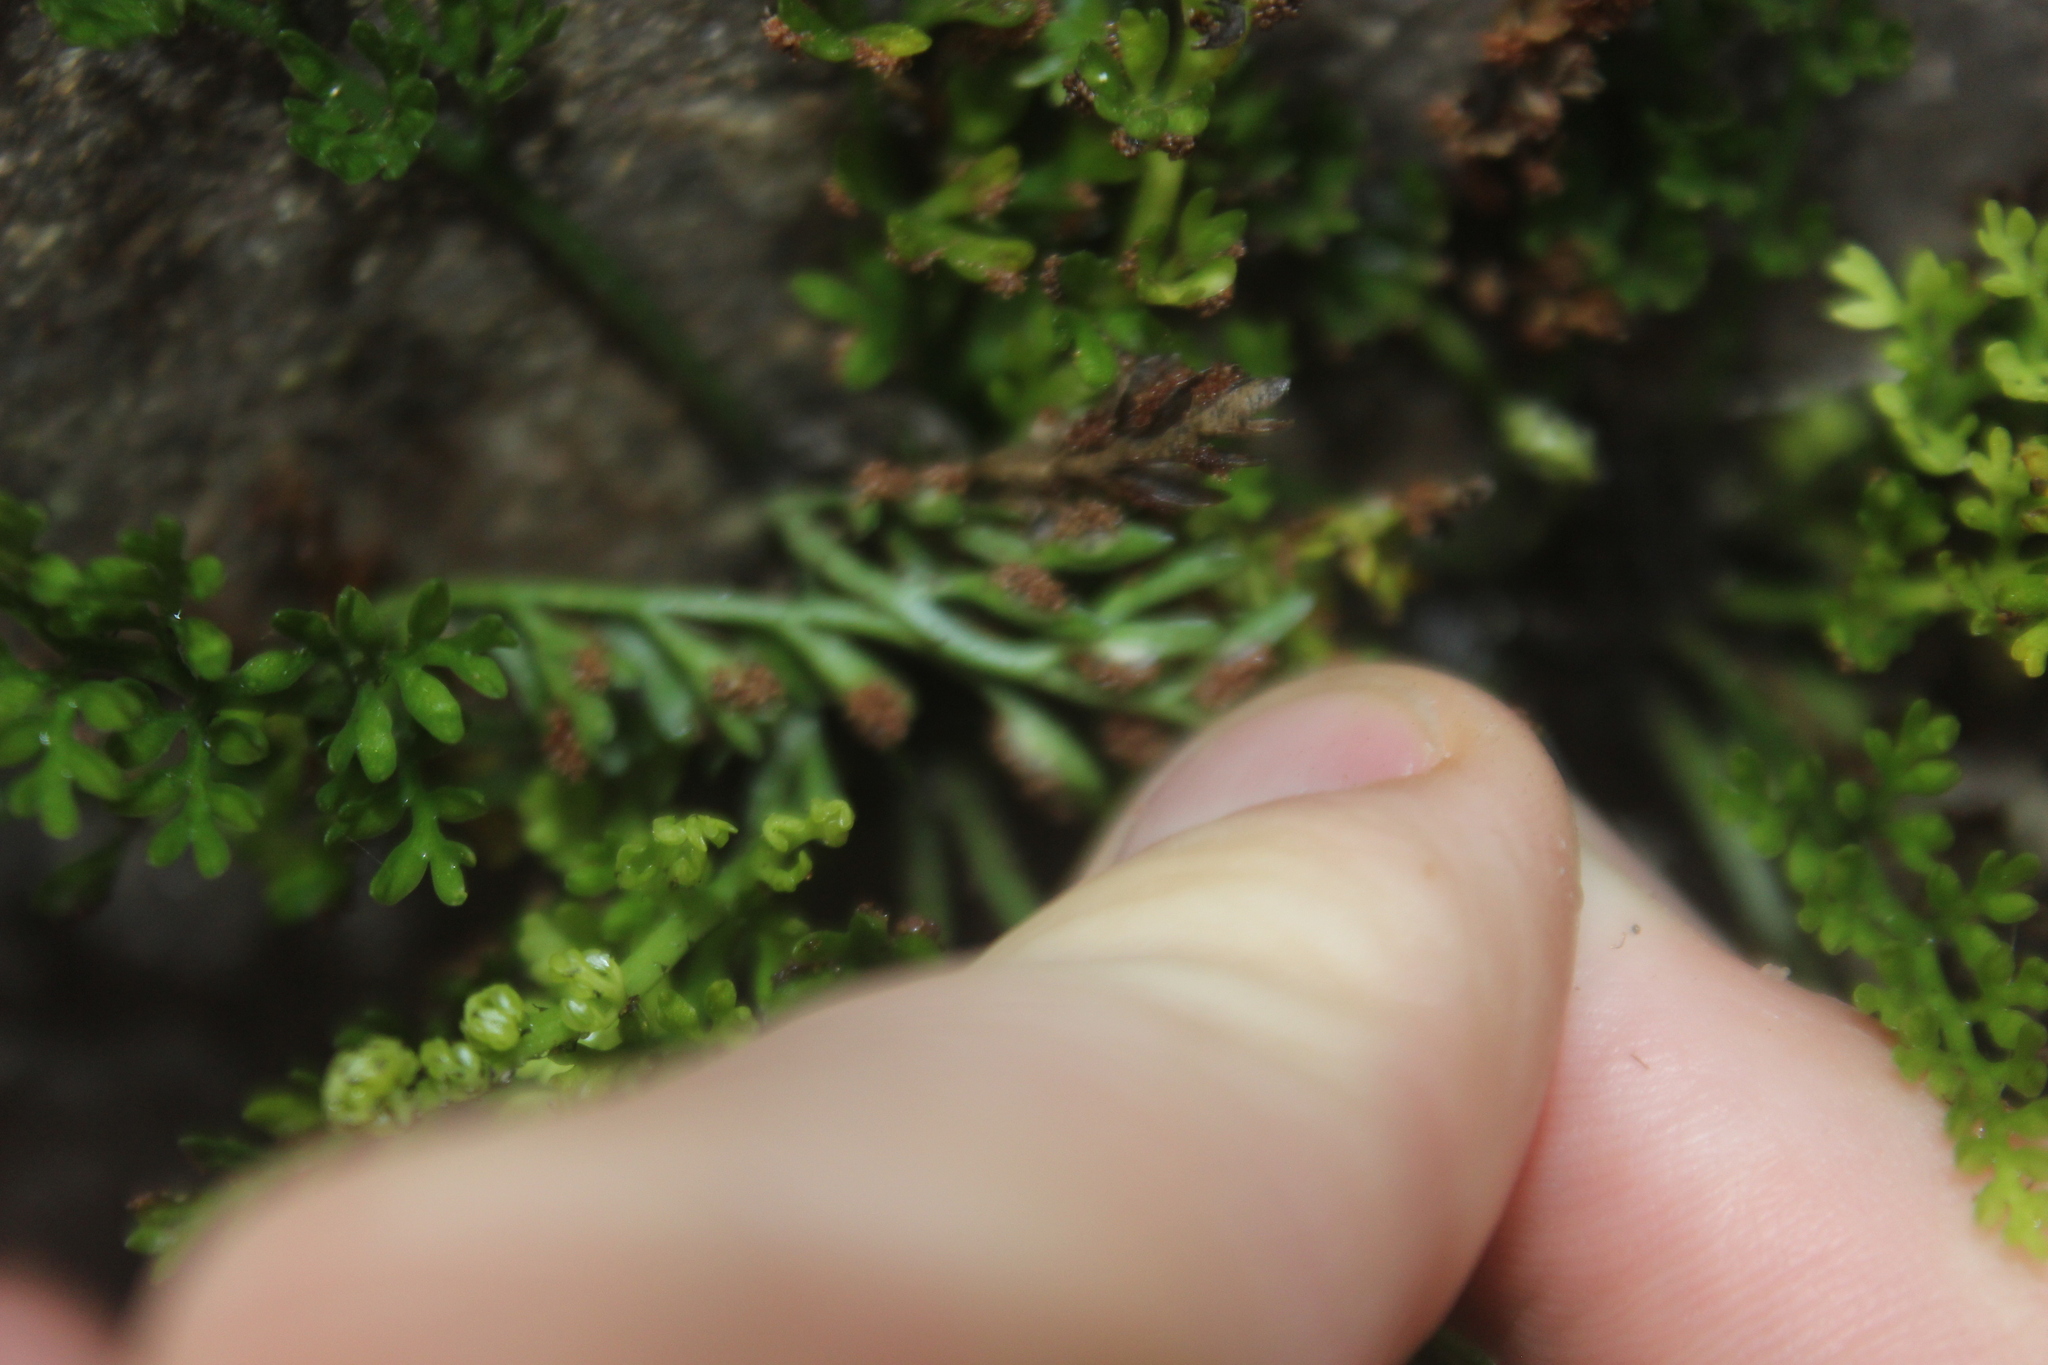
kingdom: Plantae
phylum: Tracheophyta
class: Polypodiopsida
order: Polypodiales
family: Aspleniaceae
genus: Asplenium
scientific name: Asplenium richardii
